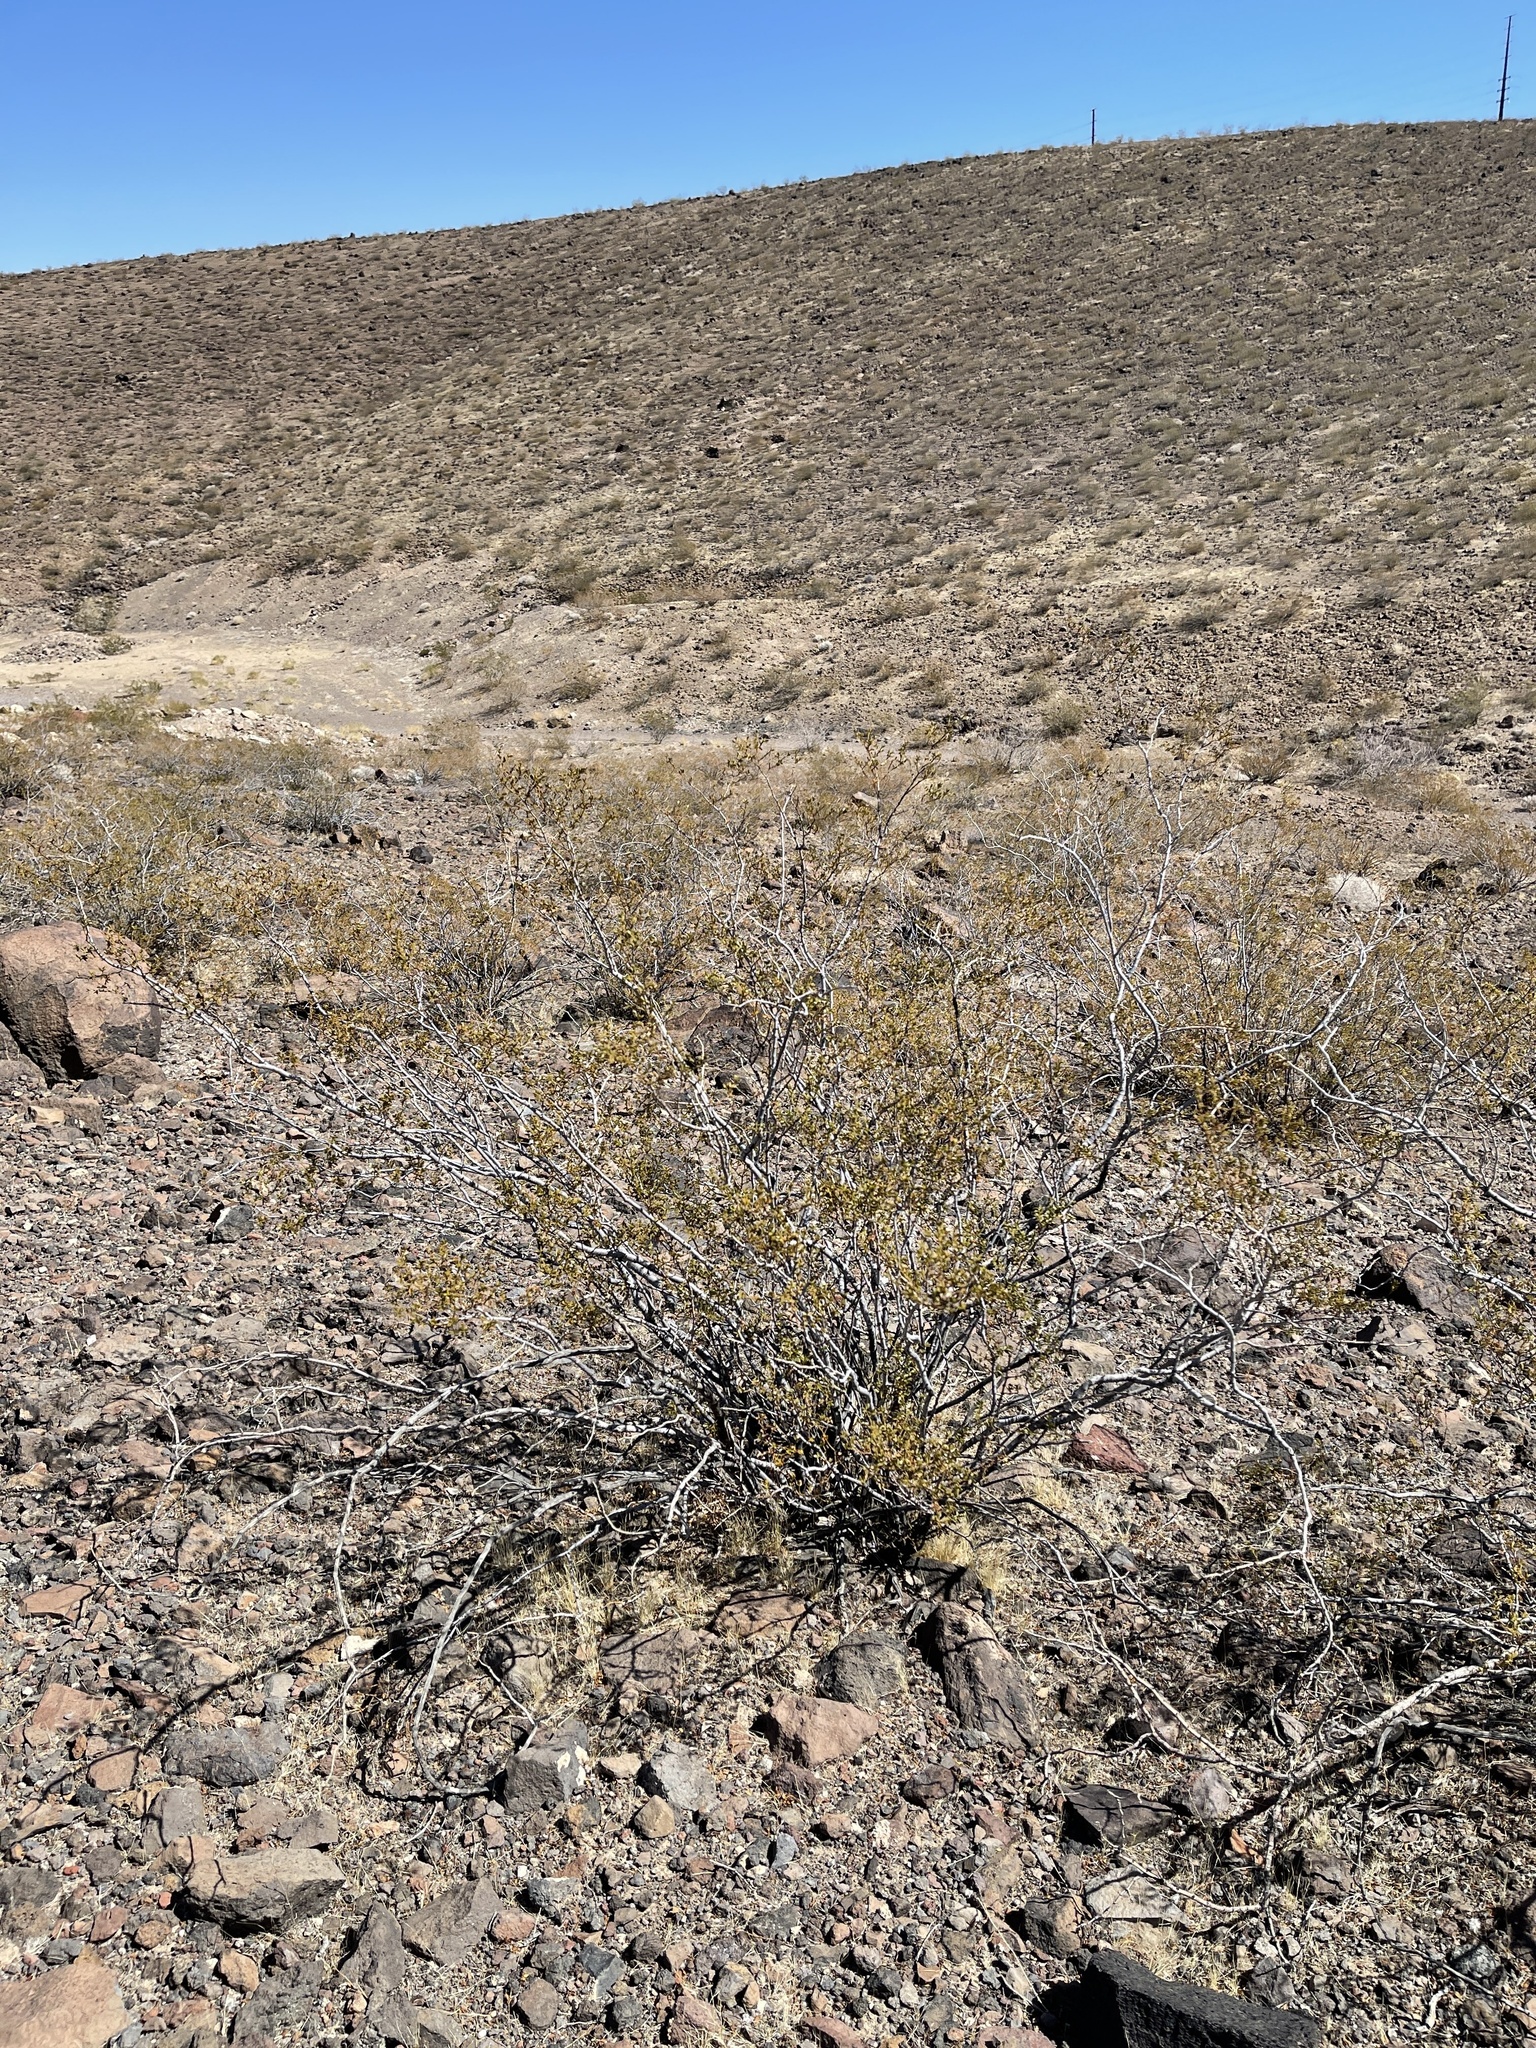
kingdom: Plantae
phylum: Tracheophyta
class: Magnoliopsida
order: Zygophyllales
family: Zygophyllaceae
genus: Larrea
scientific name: Larrea tridentata
